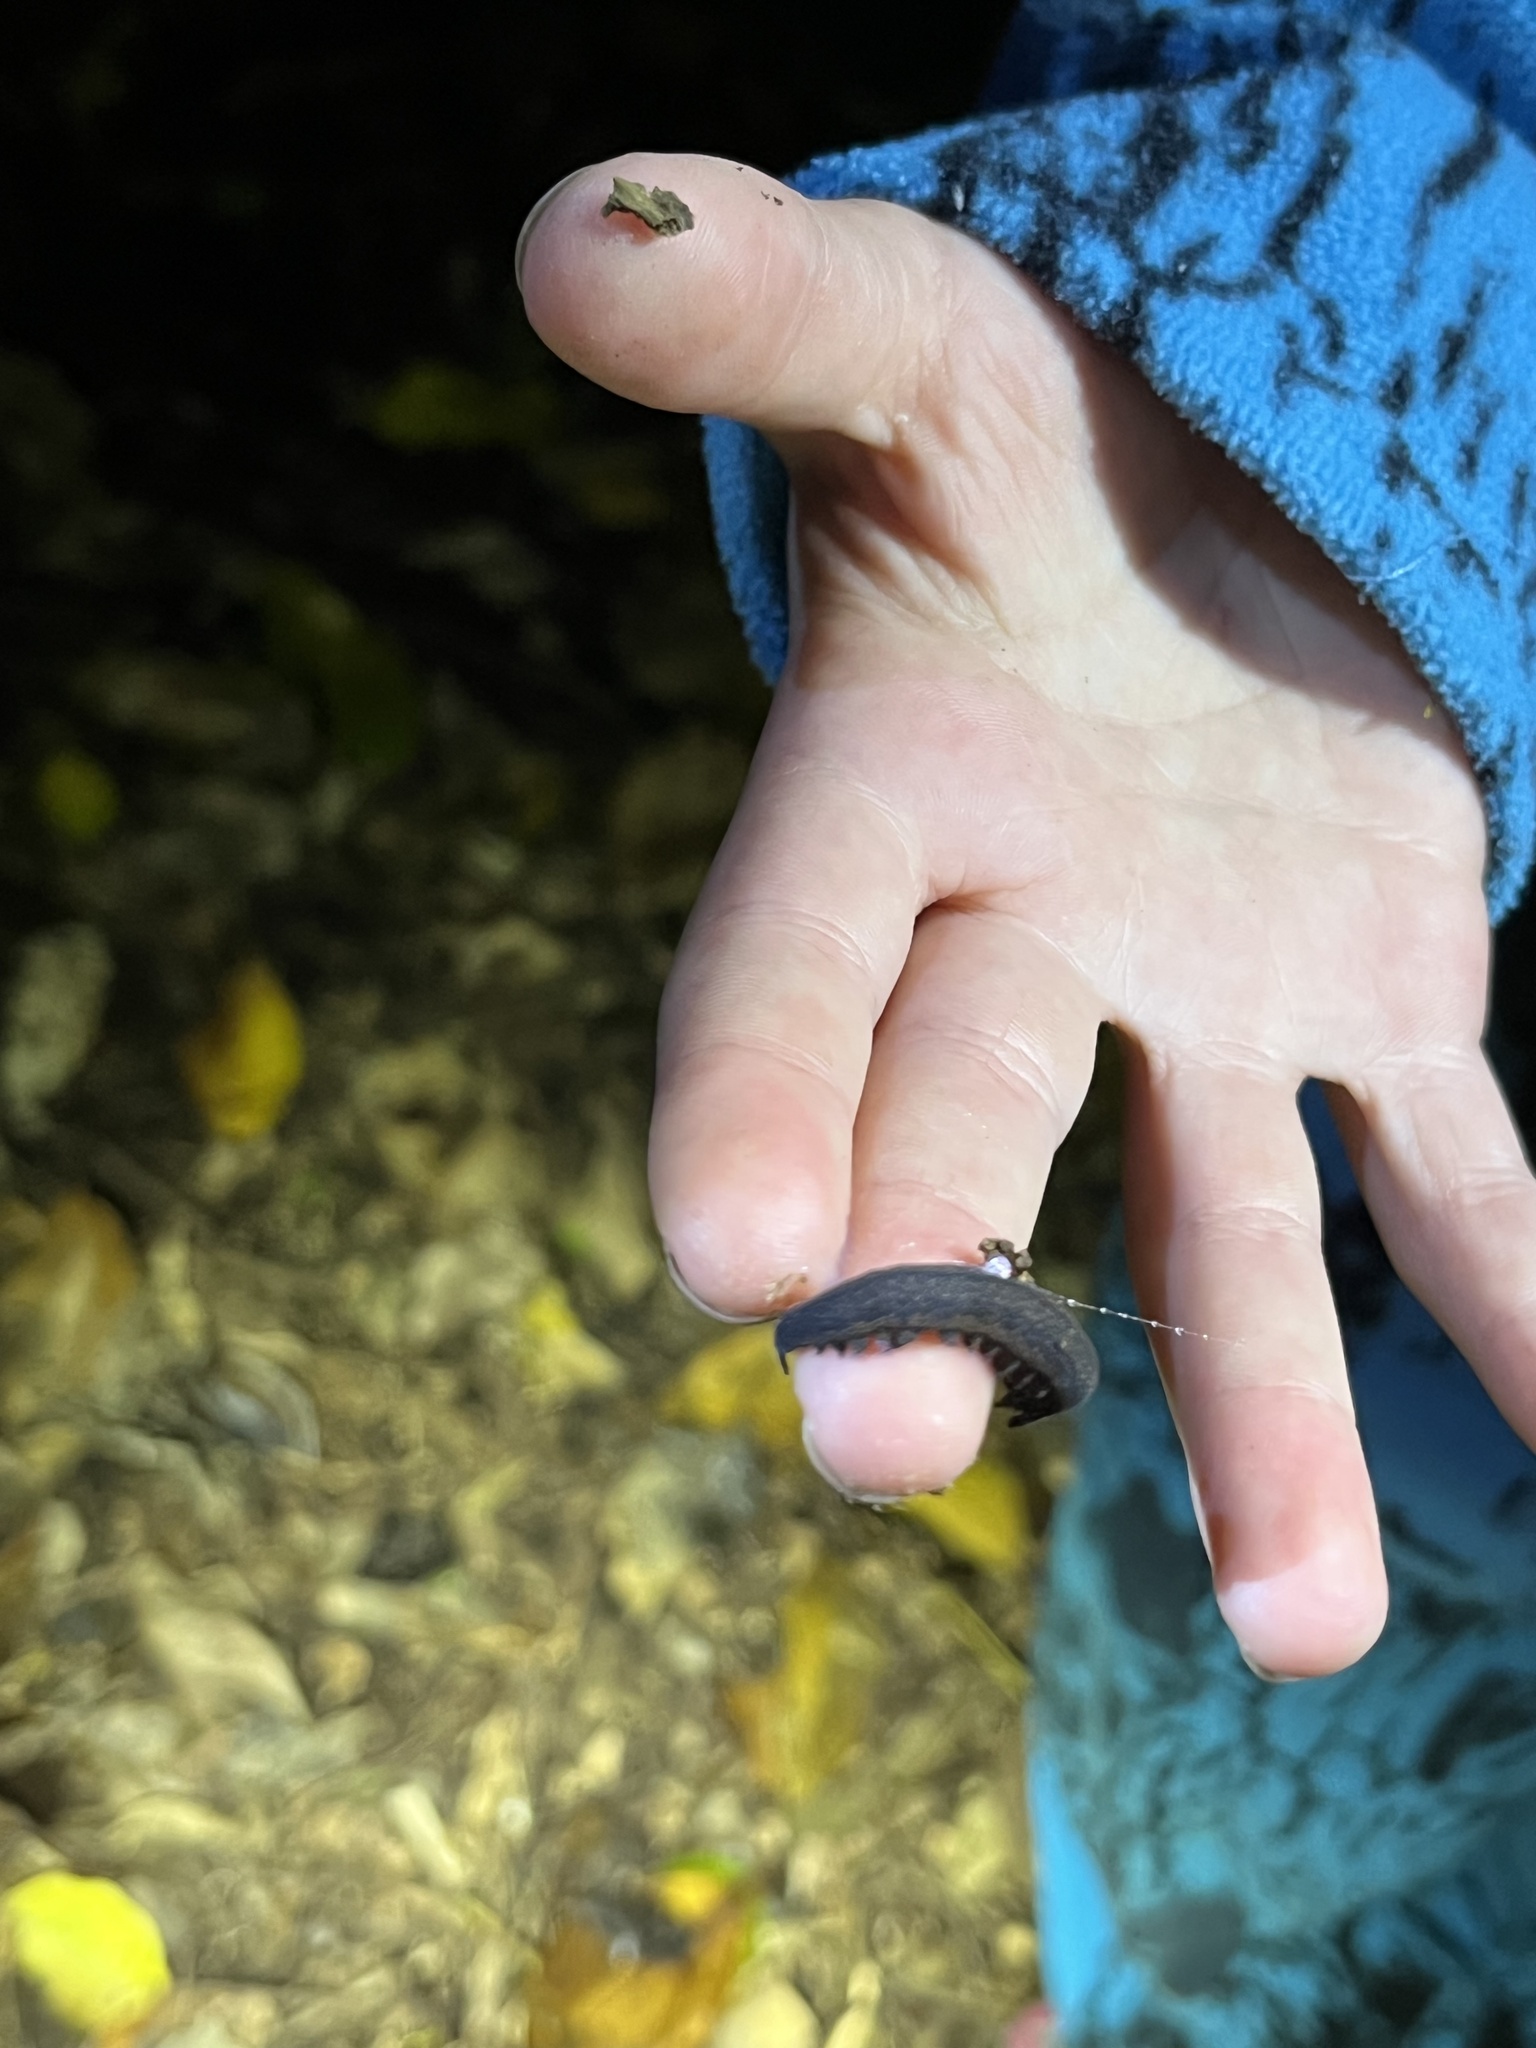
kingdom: Animalia
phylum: Onychophora
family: Peripatopsidae
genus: Peripatoides
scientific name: Peripatoides novaezealandiae
